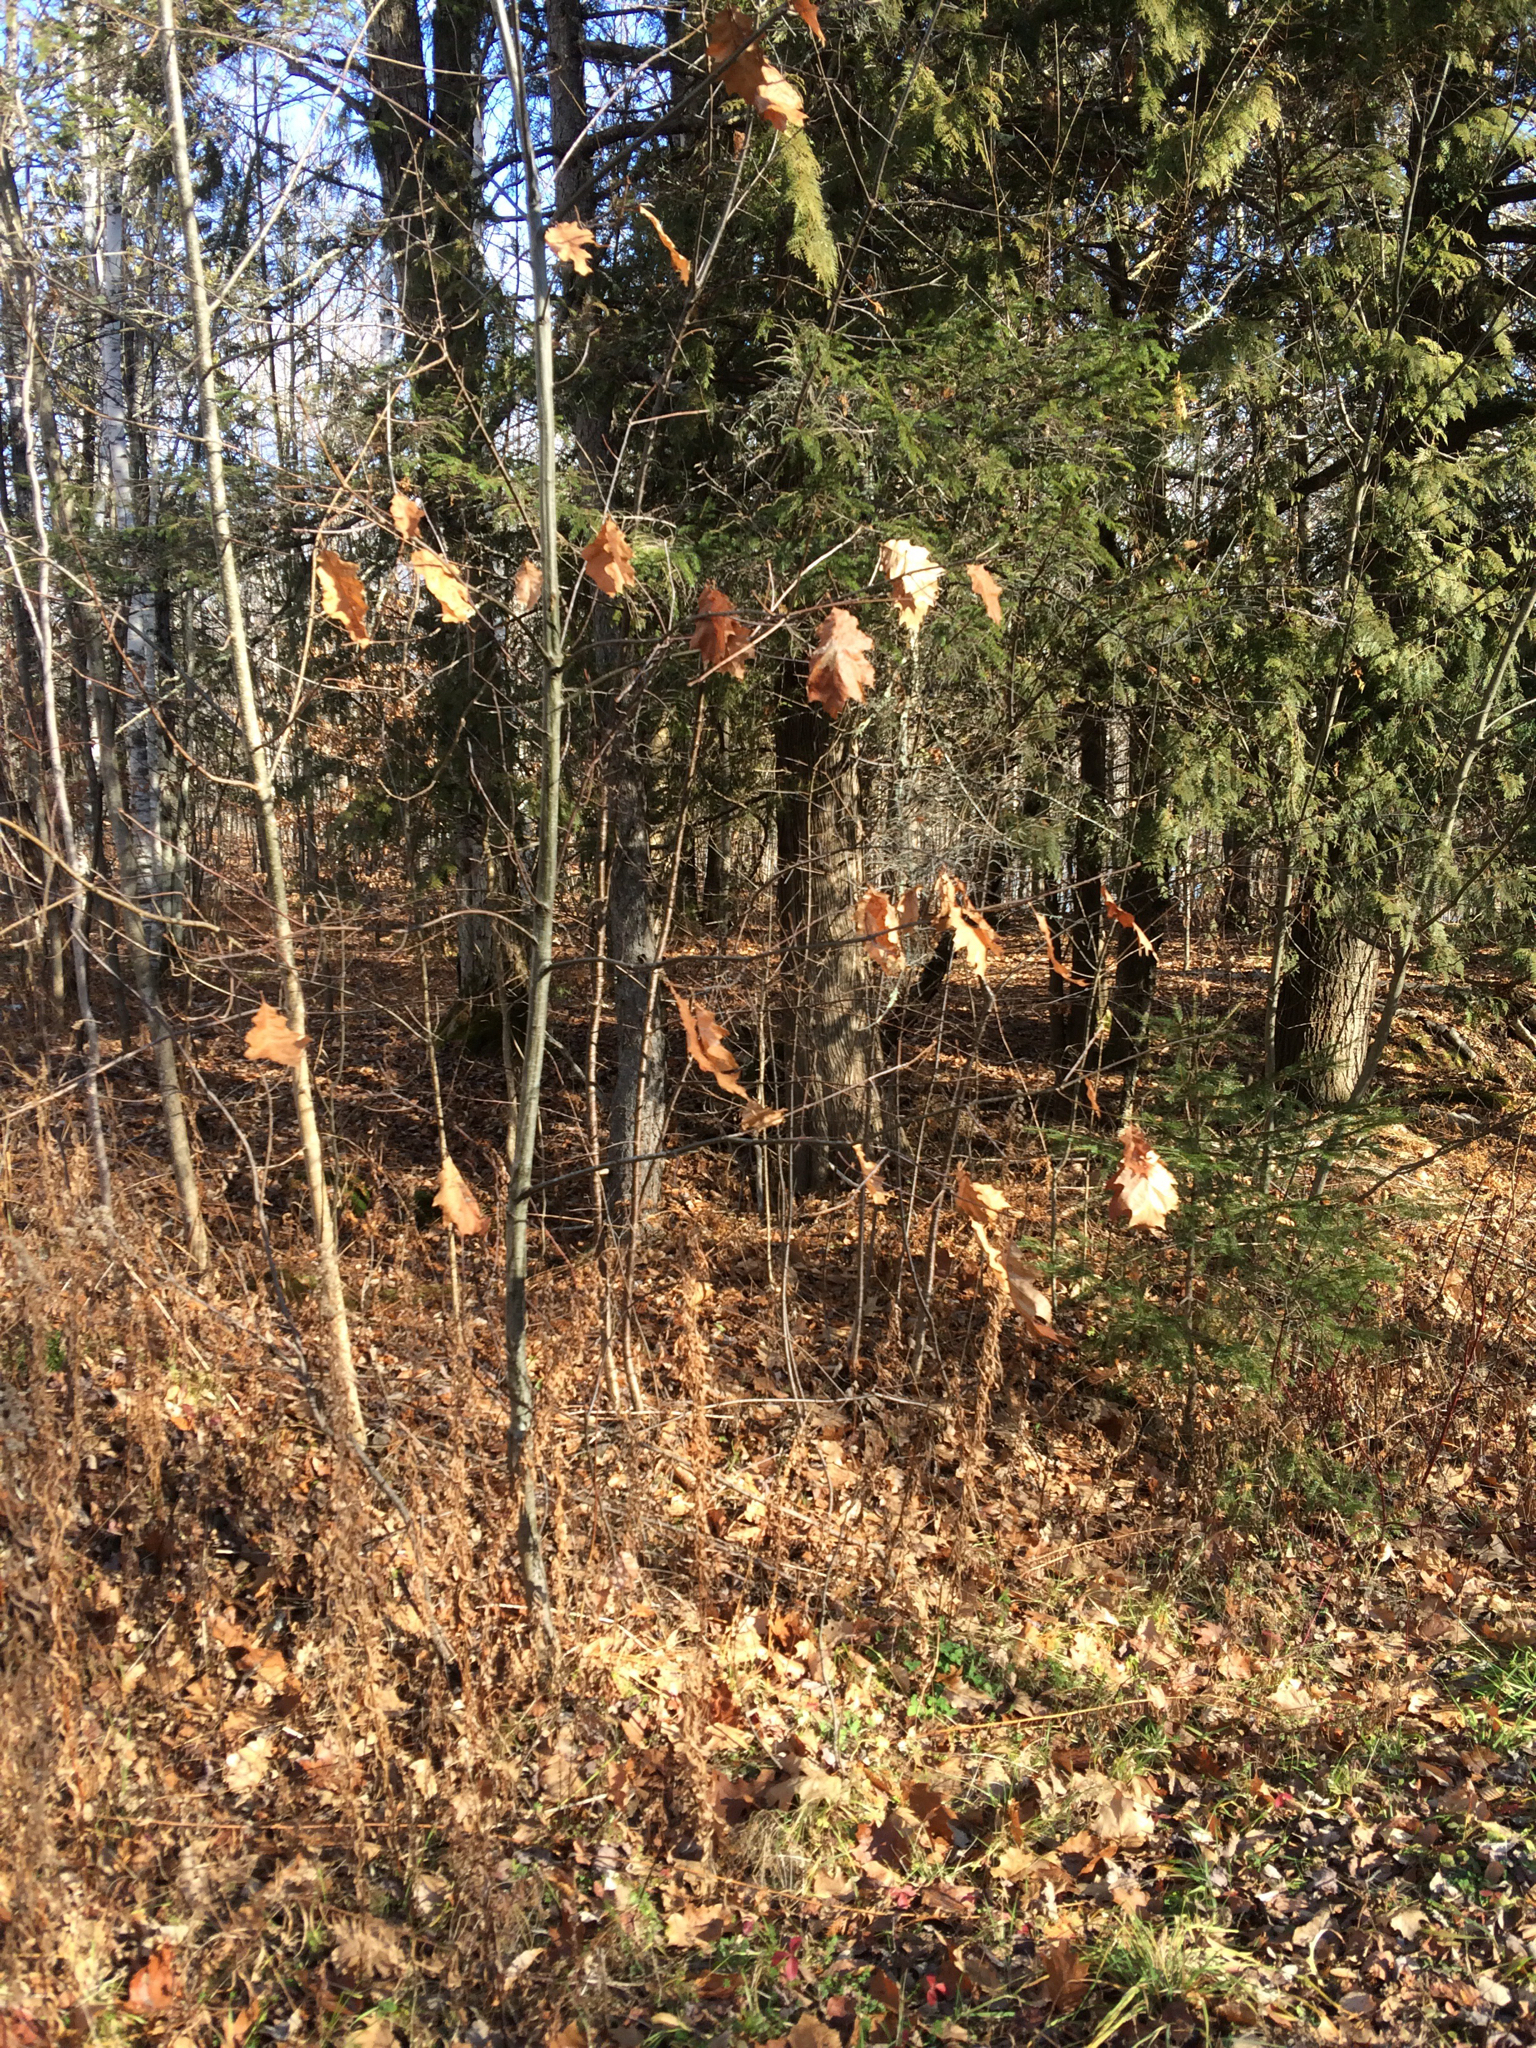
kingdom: Plantae
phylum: Tracheophyta
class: Magnoliopsida
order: Fagales
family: Fagaceae
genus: Quercus
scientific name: Quercus rubra
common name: Red oak
